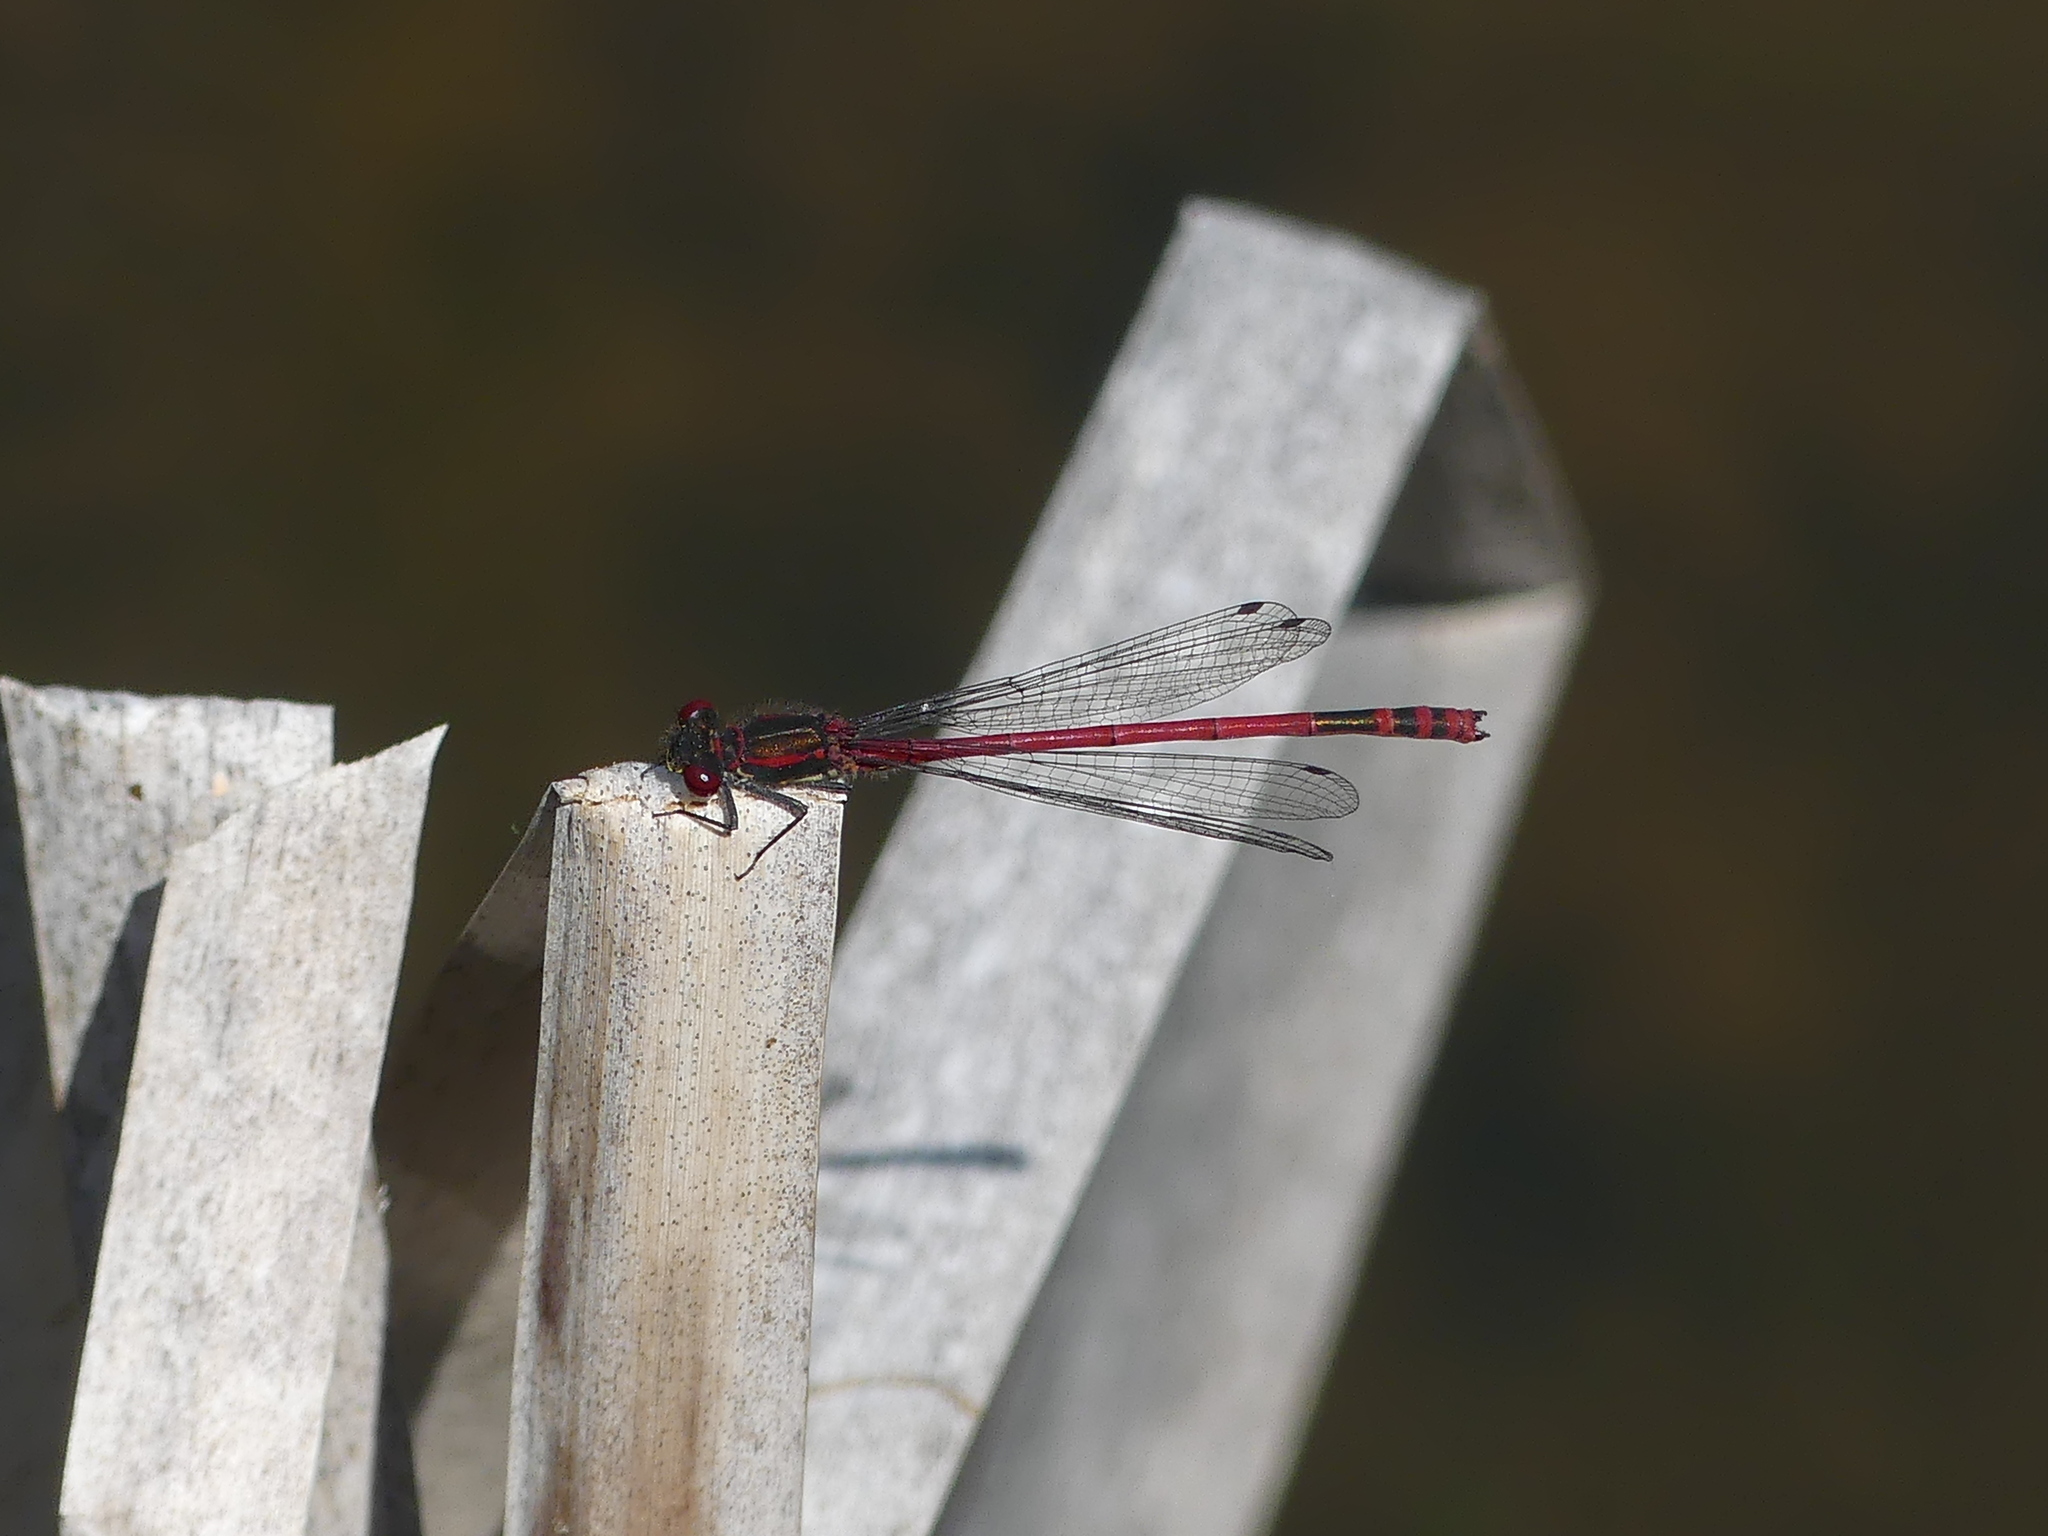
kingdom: Animalia
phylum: Arthropoda
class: Insecta
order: Odonata
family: Coenagrionidae
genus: Pyrrhosoma
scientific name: Pyrrhosoma nymphula
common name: Large red damsel
